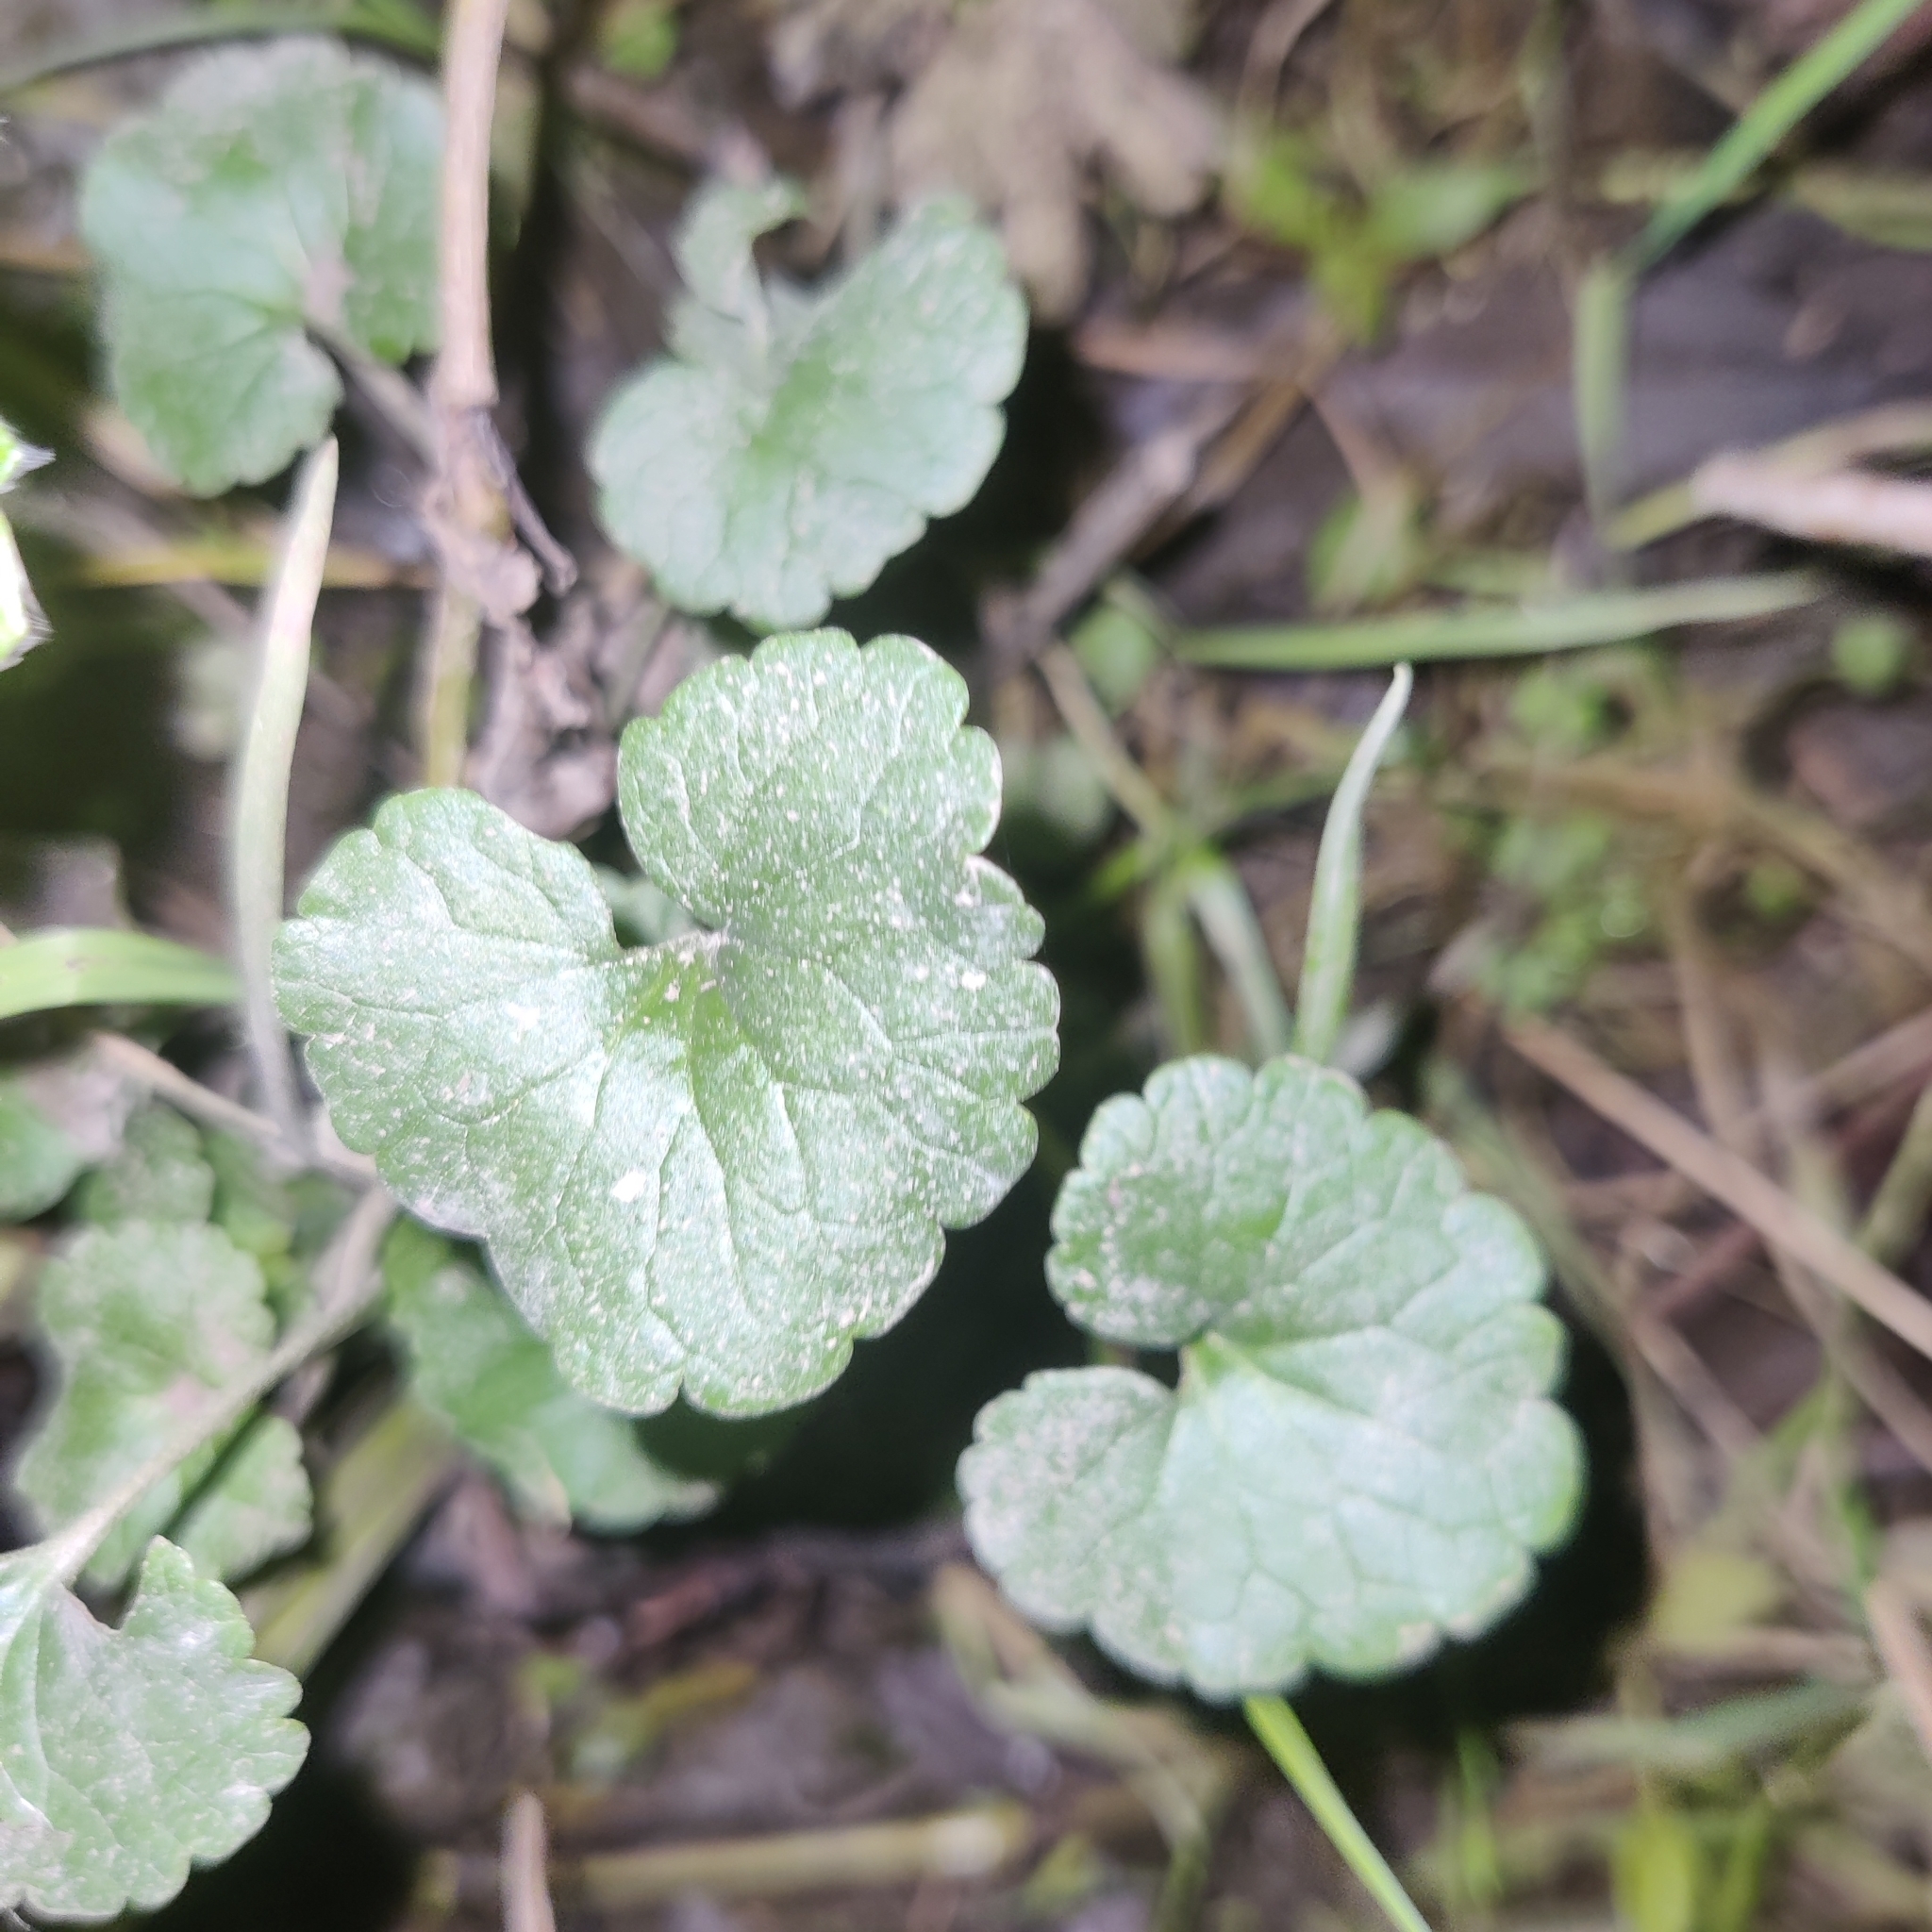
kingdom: Plantae
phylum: Tracheophyta
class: Magnoliopsida
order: Lamiales
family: Lamiaceae
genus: Glechoma
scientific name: Glechoma hederacea
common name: Ground ivy
